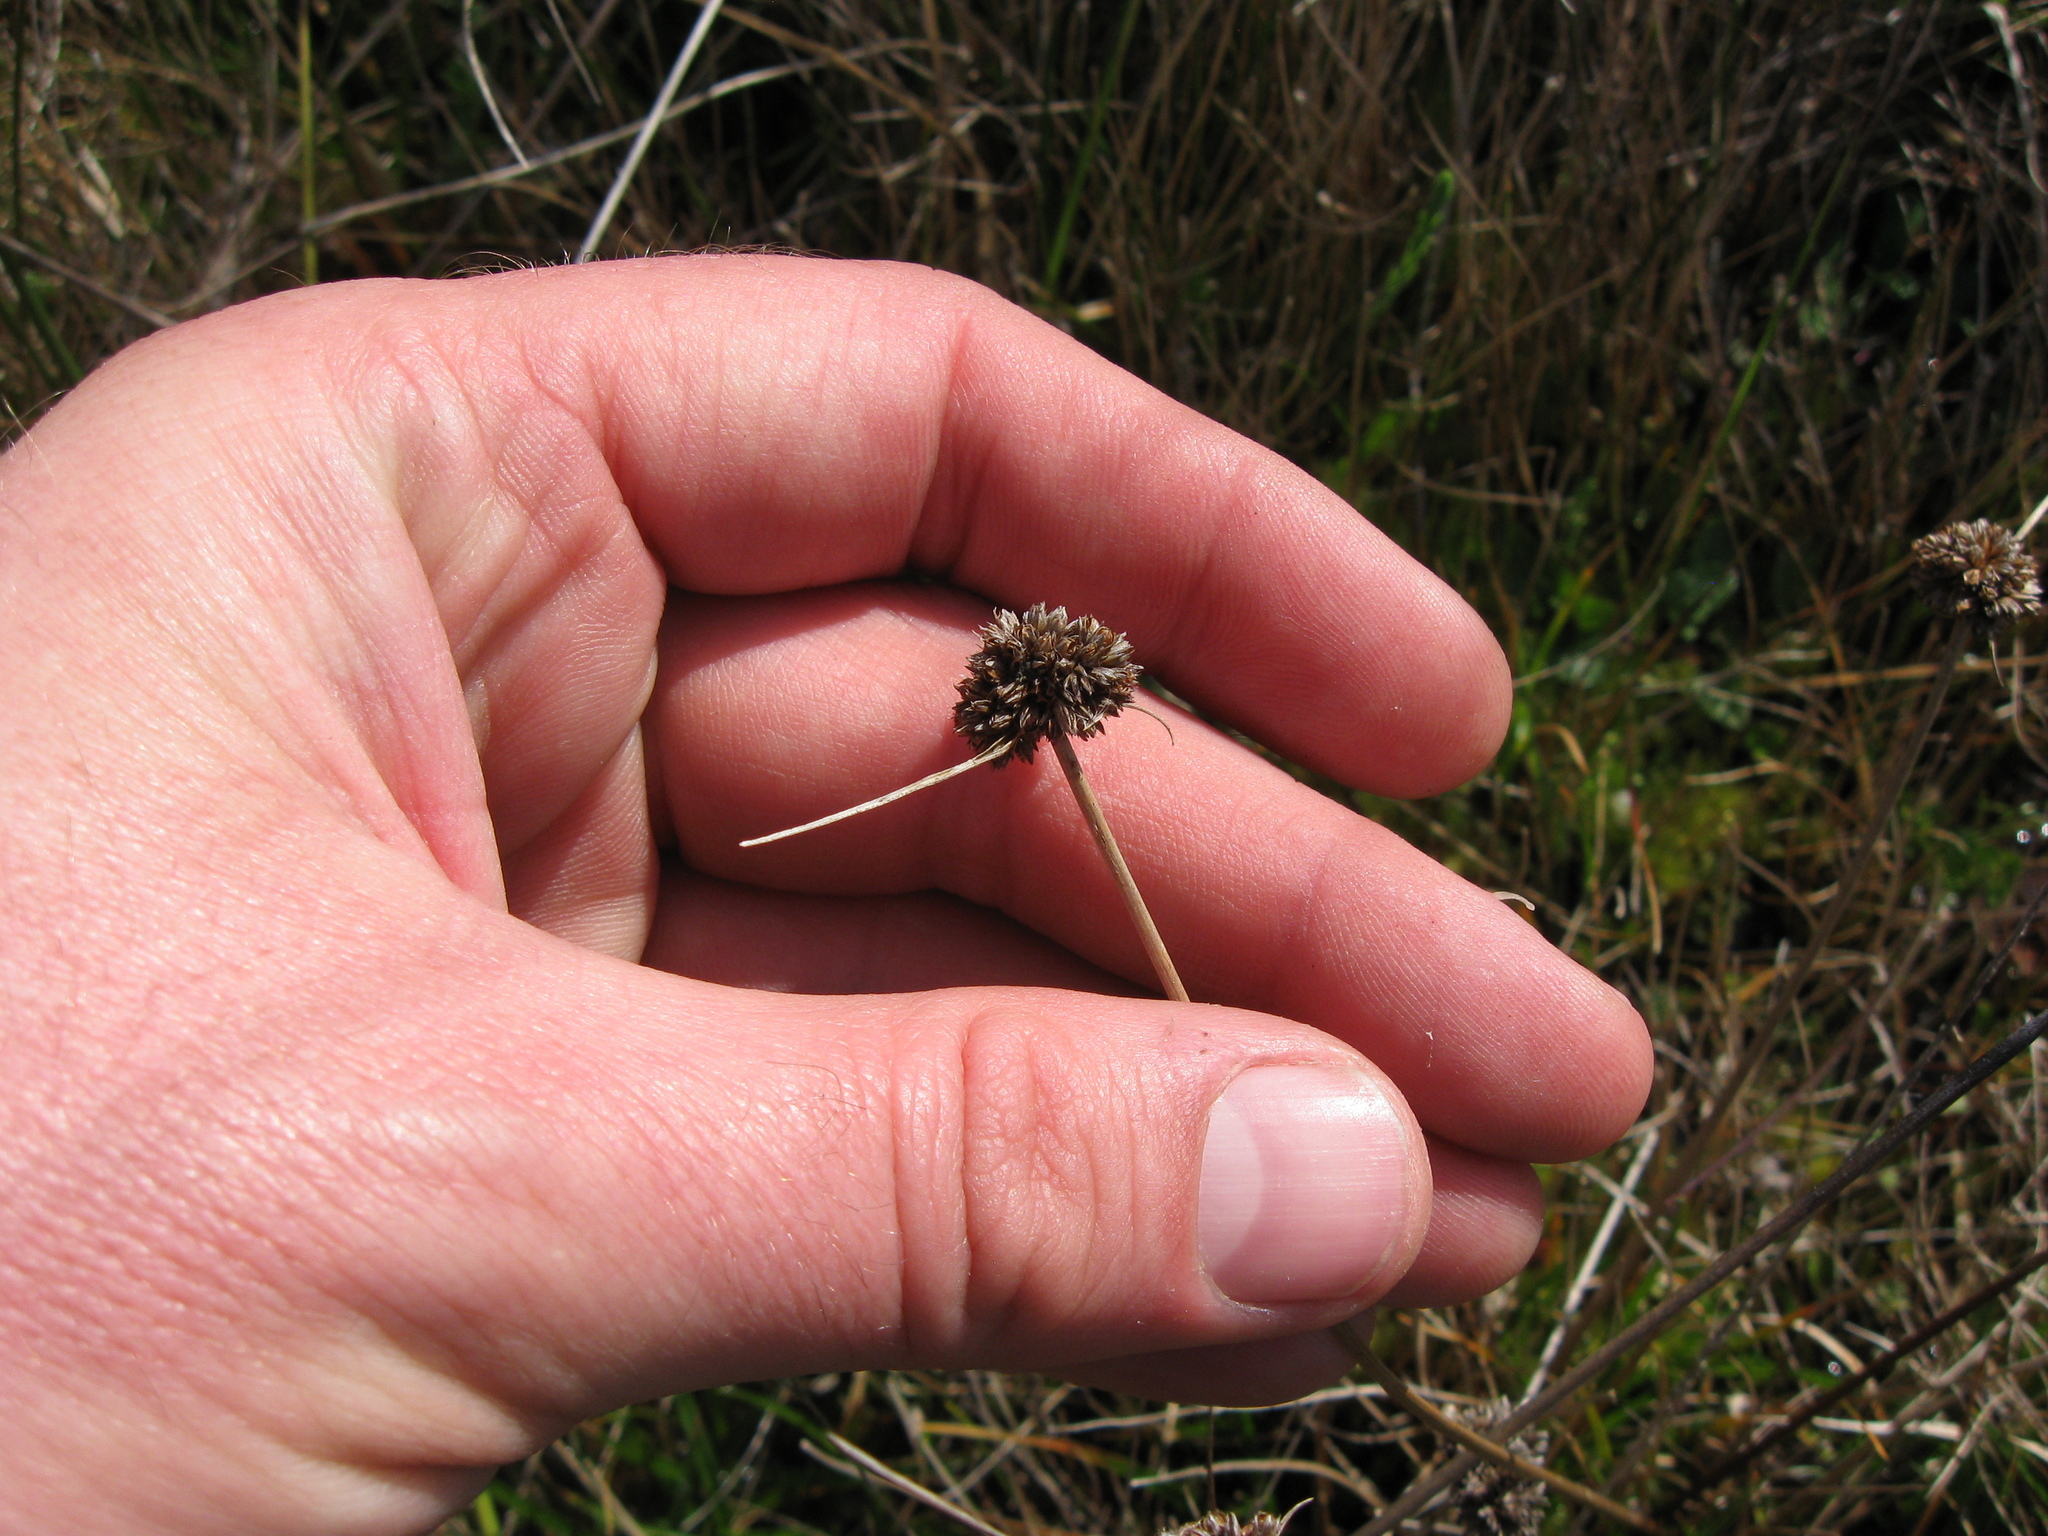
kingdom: Plantae
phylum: Tracheophyta
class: Liliopsida
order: Poales
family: Juncaceae
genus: Juncus
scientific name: Juncus caespiticius
